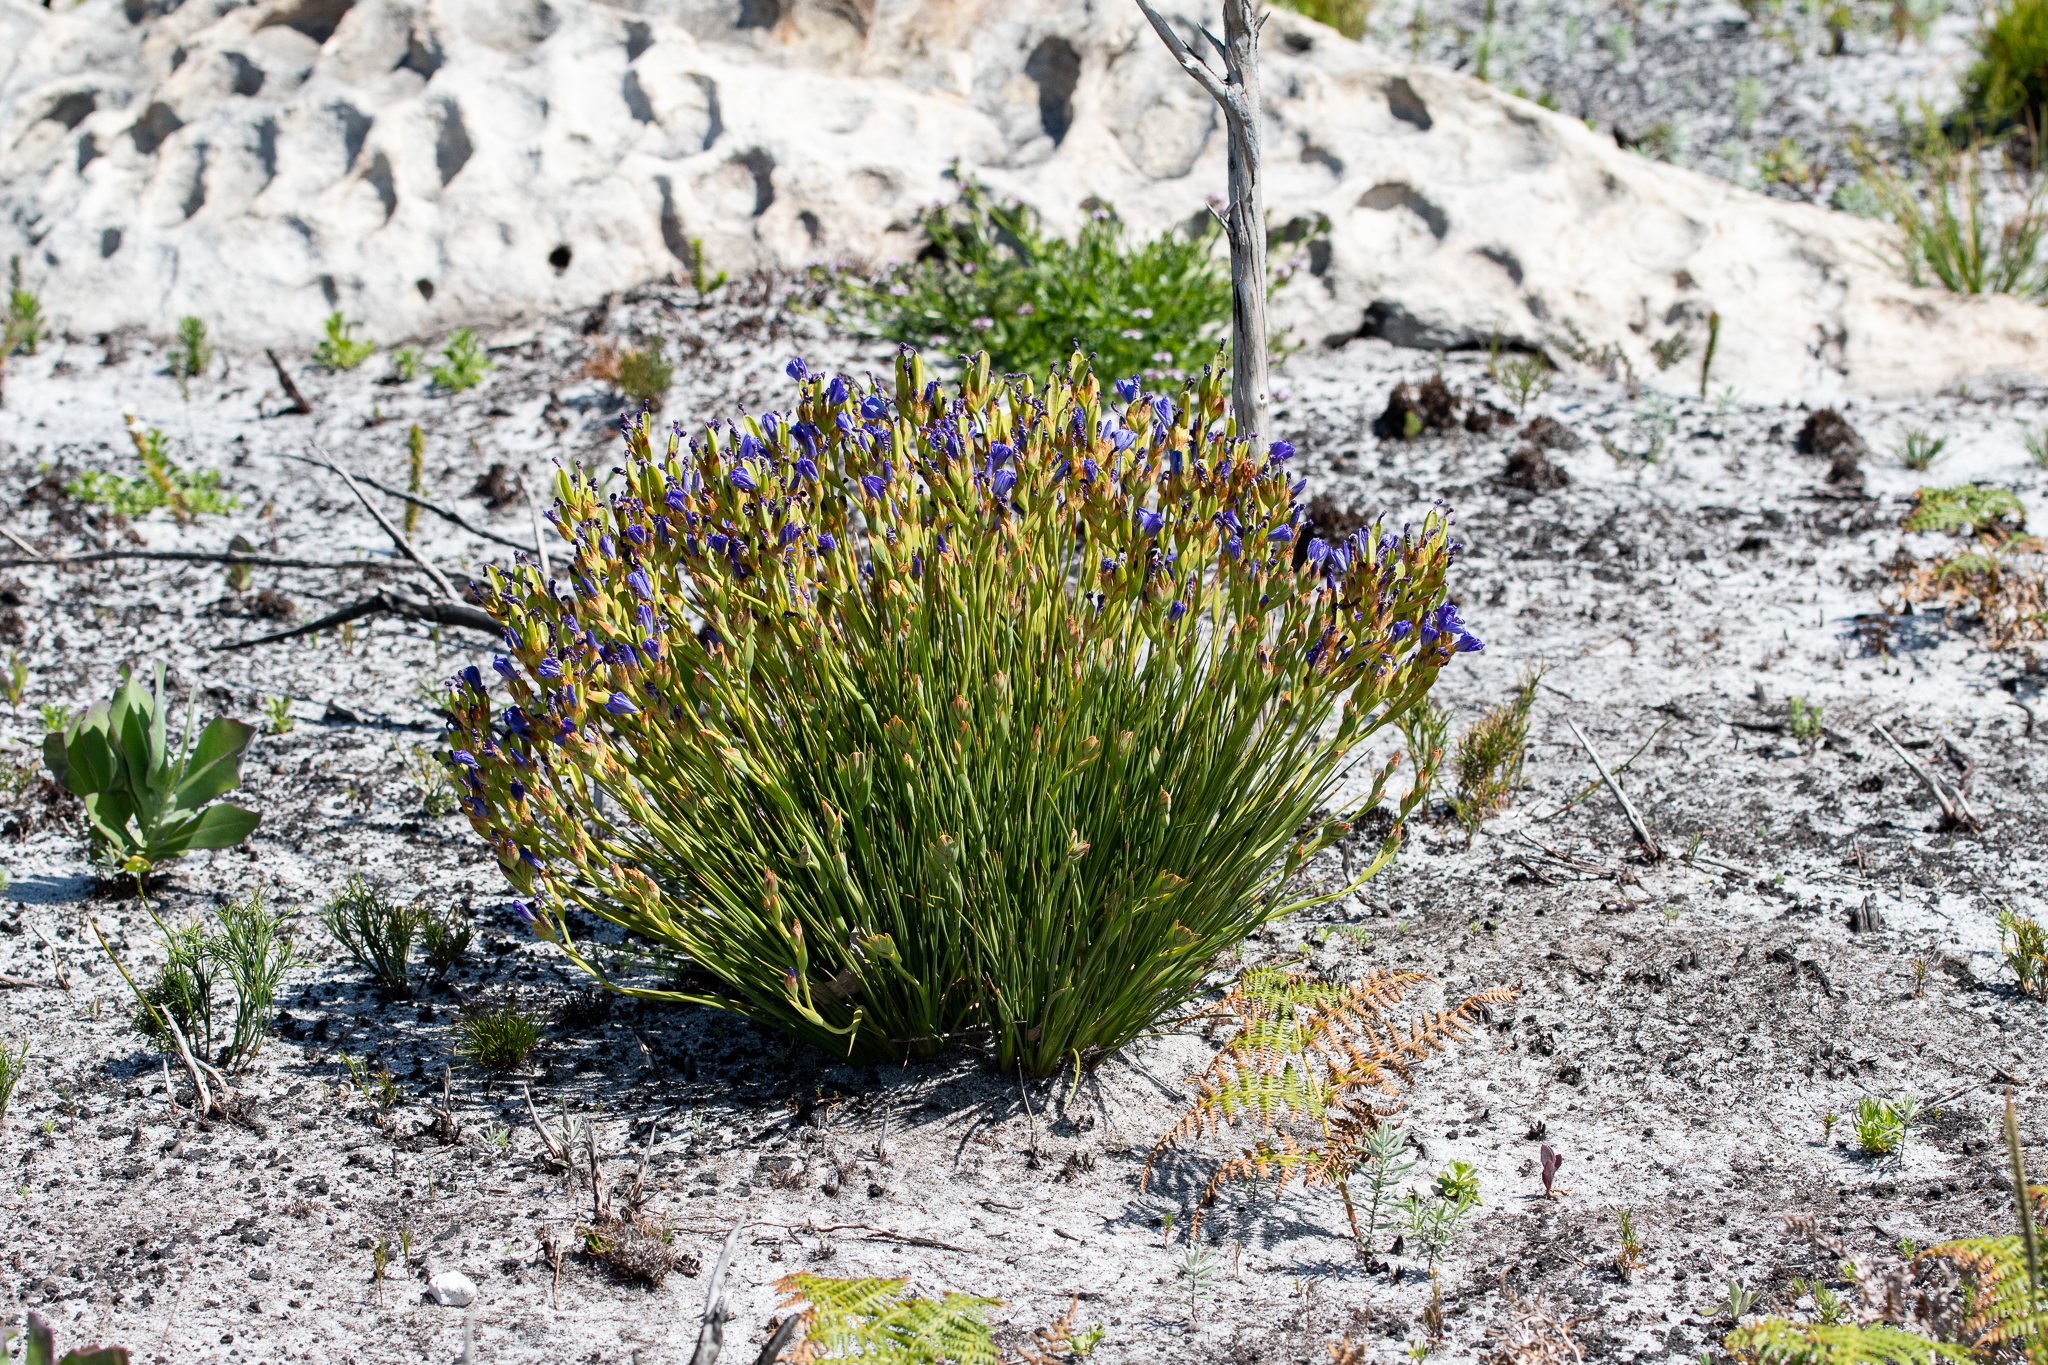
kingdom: Plantae
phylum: Tracheophyta
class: Liliopsida
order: Asparagales
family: Iridaceae
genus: Aristea
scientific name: Aristea juncifolia
